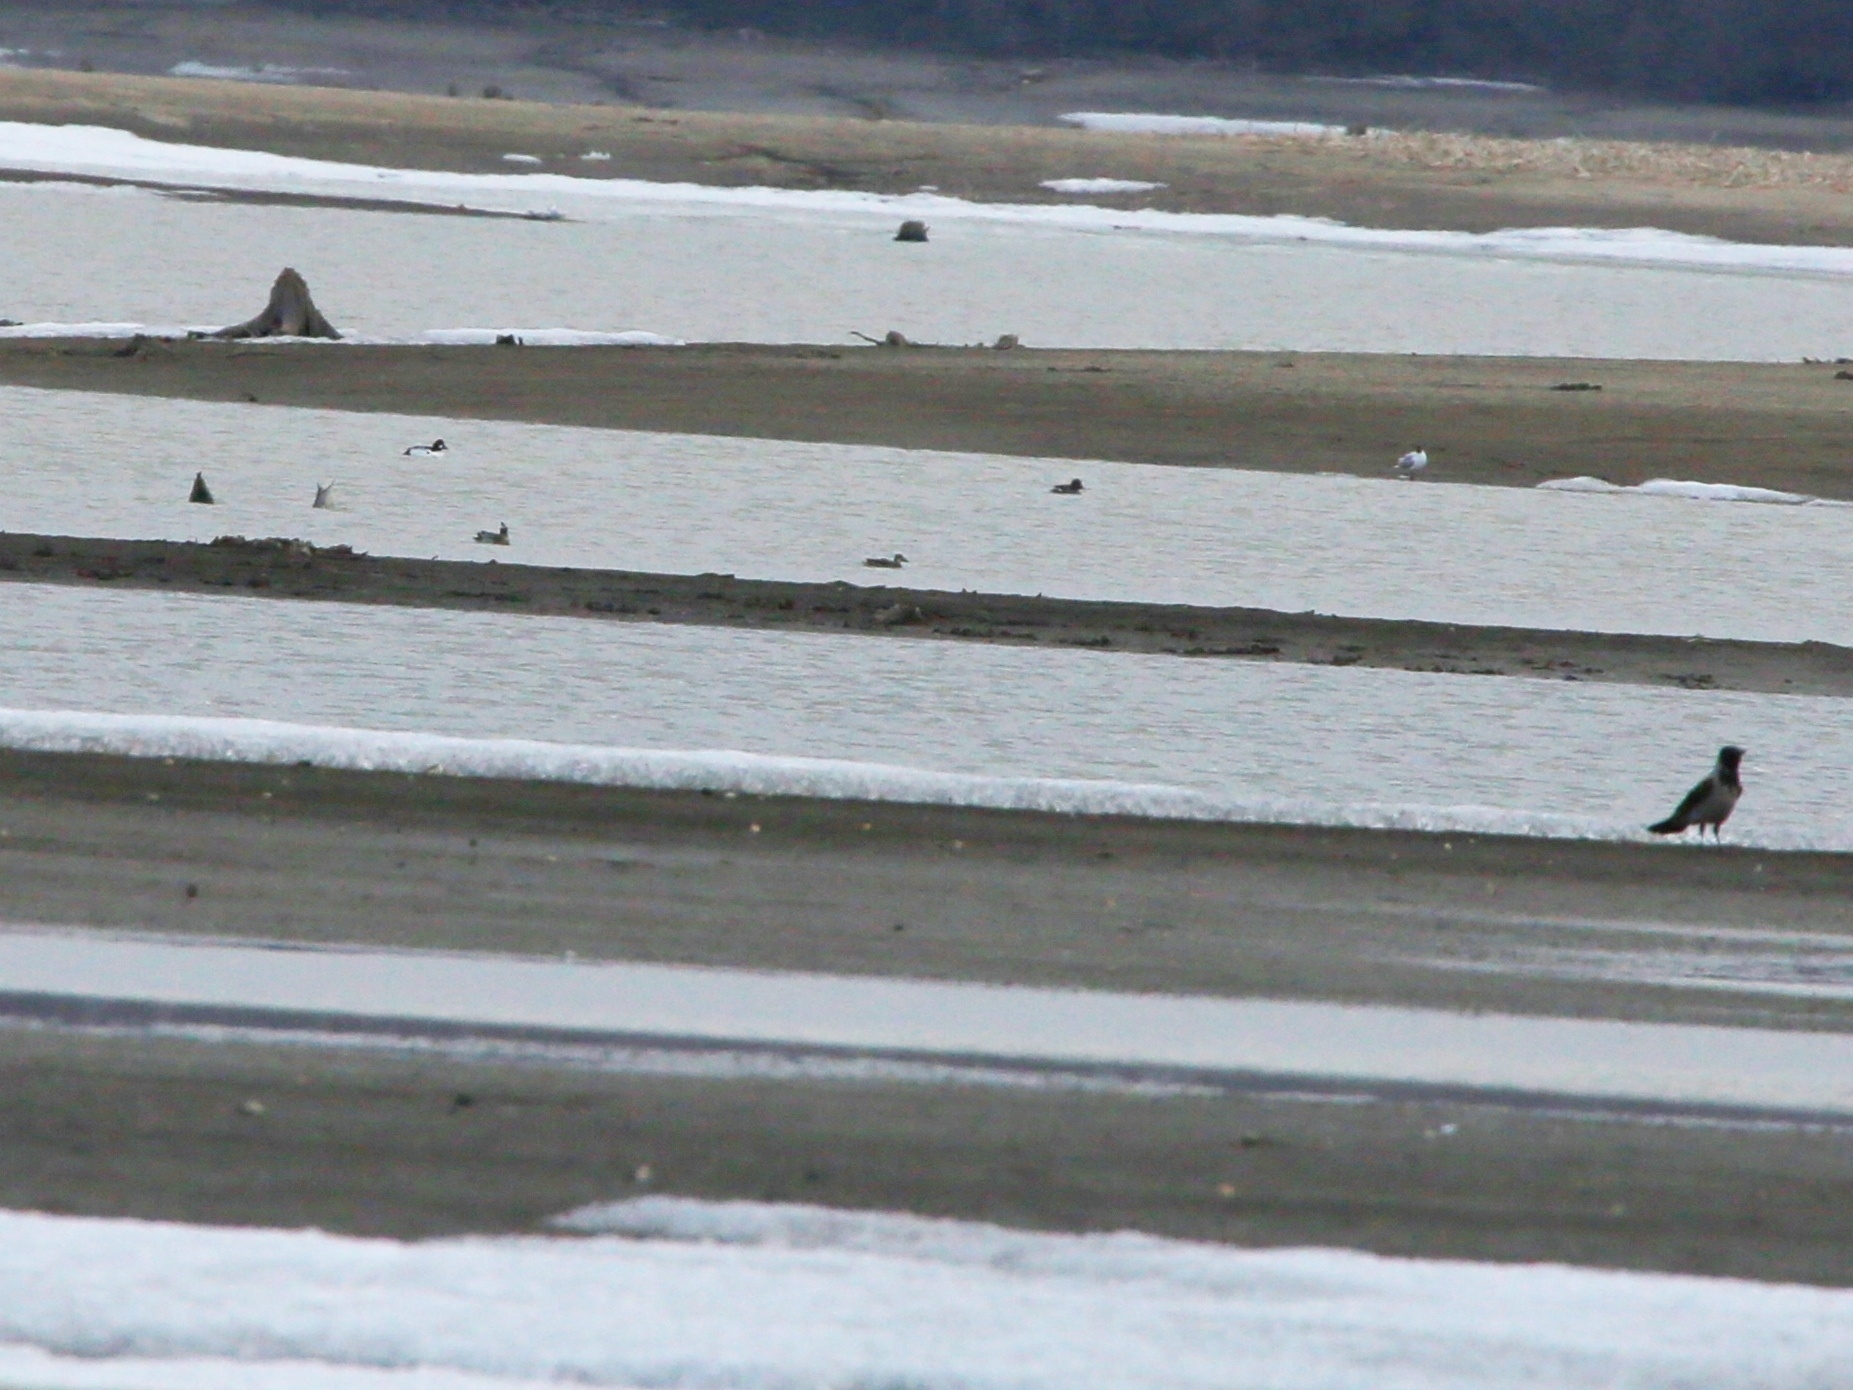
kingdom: Animalia
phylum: Chordata
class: Aves
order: Anseriformes
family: Anatidae
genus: Bucephala
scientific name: Bucephala clangula
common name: Common goldeneye
